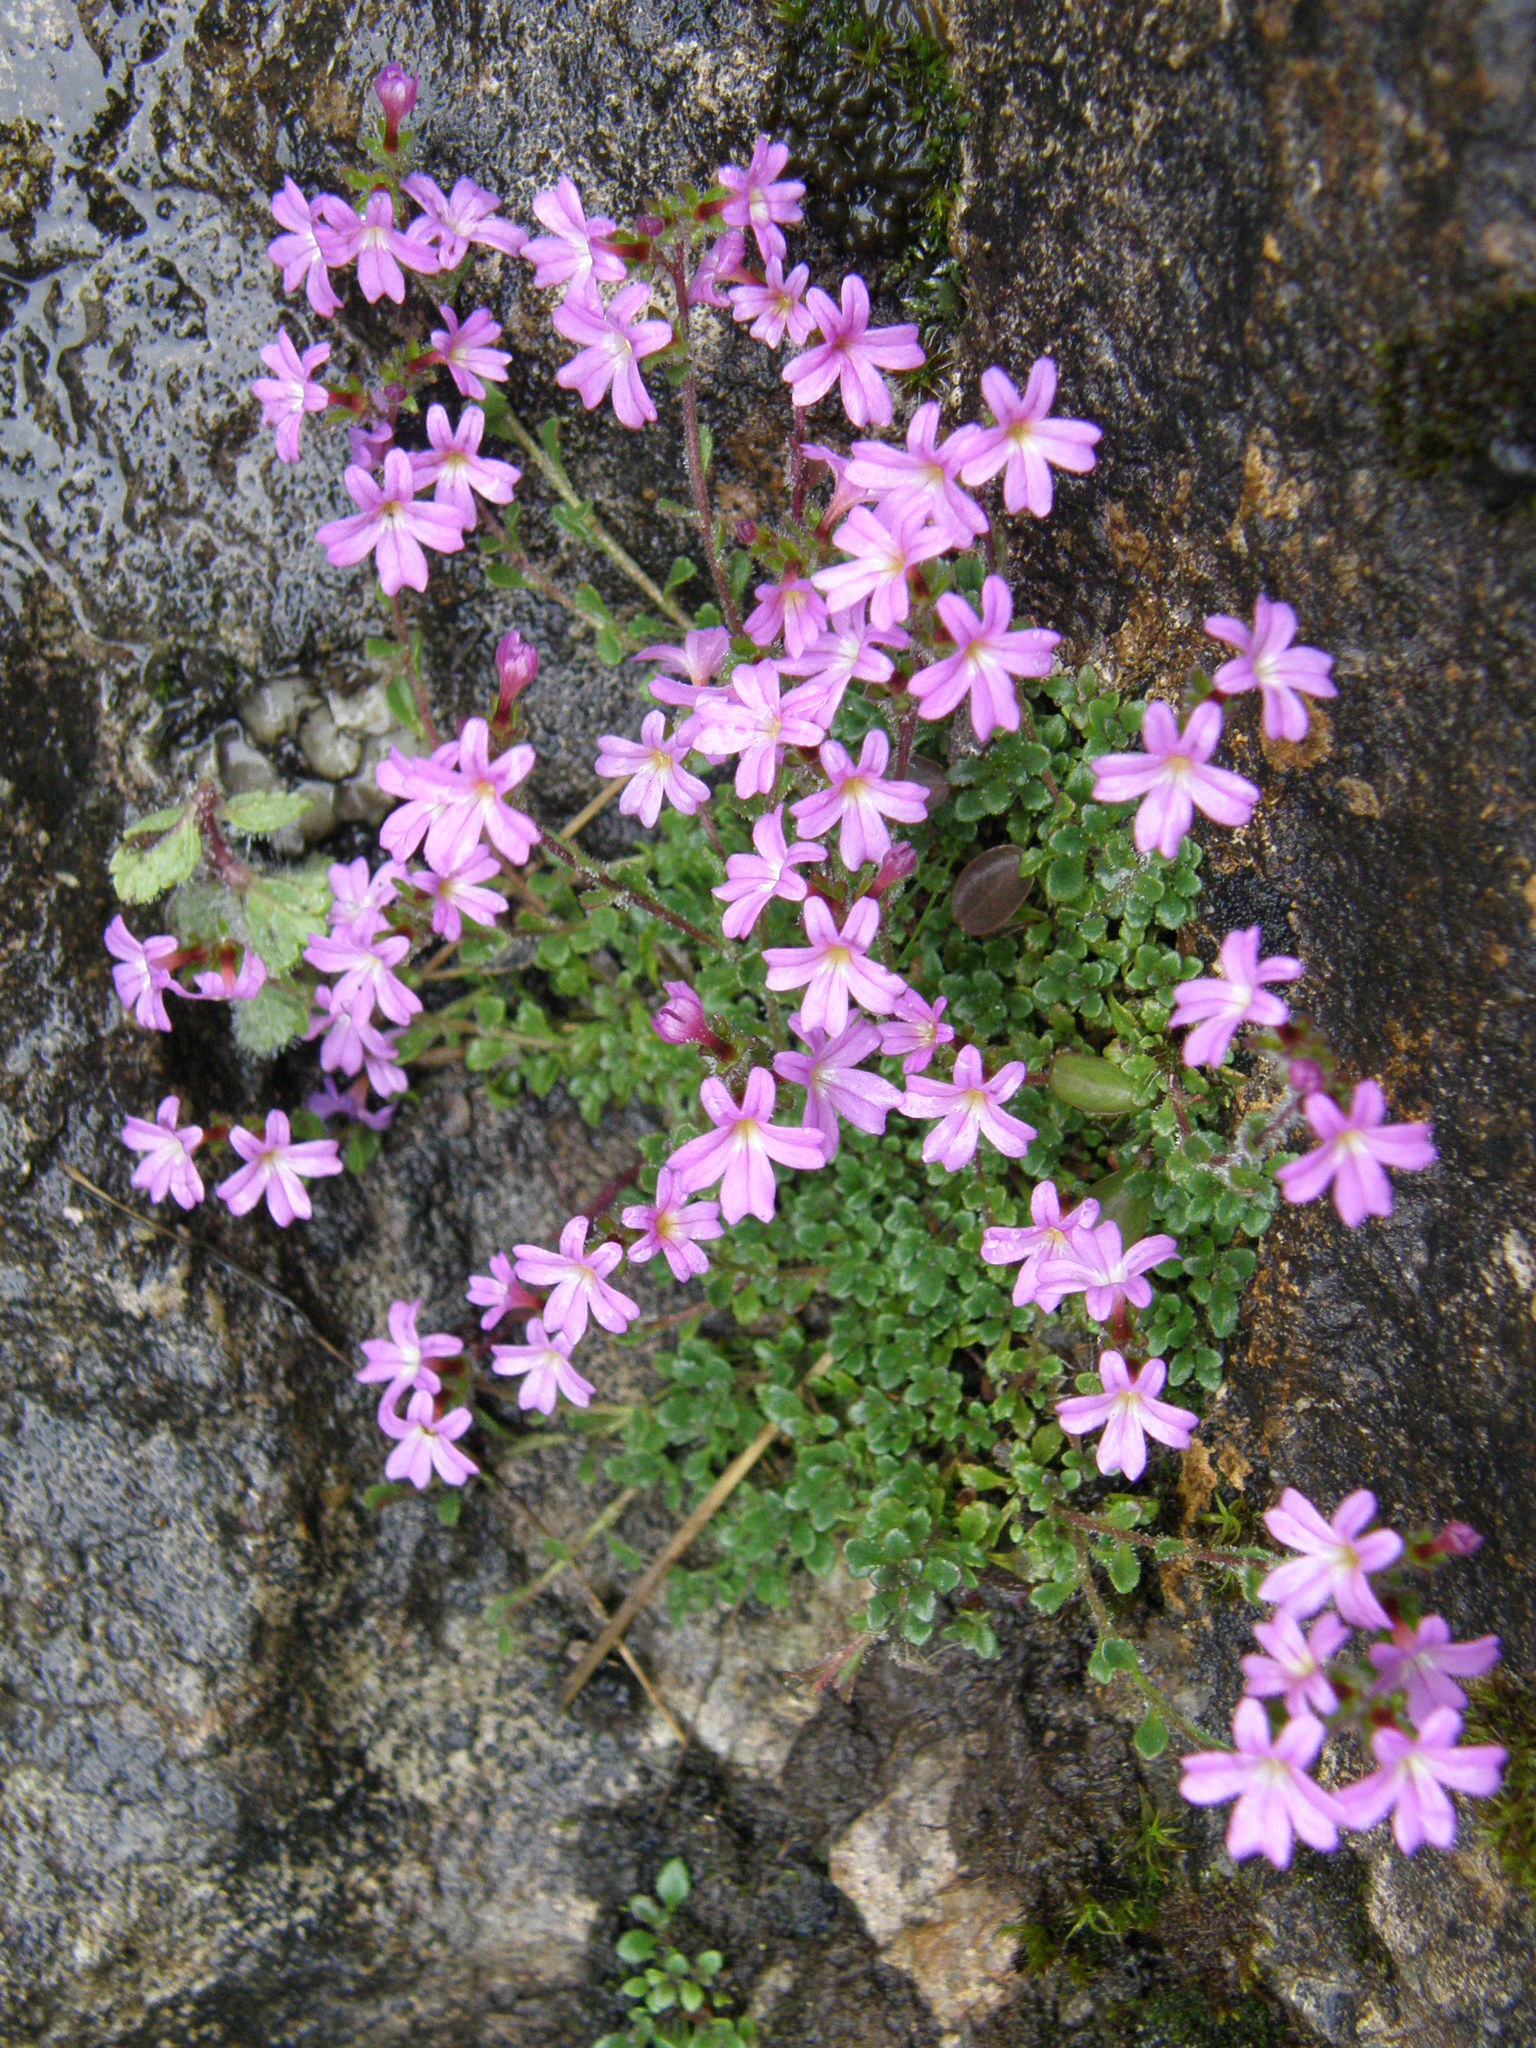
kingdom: Plantae
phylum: Tracheophyta
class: Magnoliopsida
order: Lamiales
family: Plantaginaceae
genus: Erinus
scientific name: Erinus alpinus
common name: Fairy foxglove
